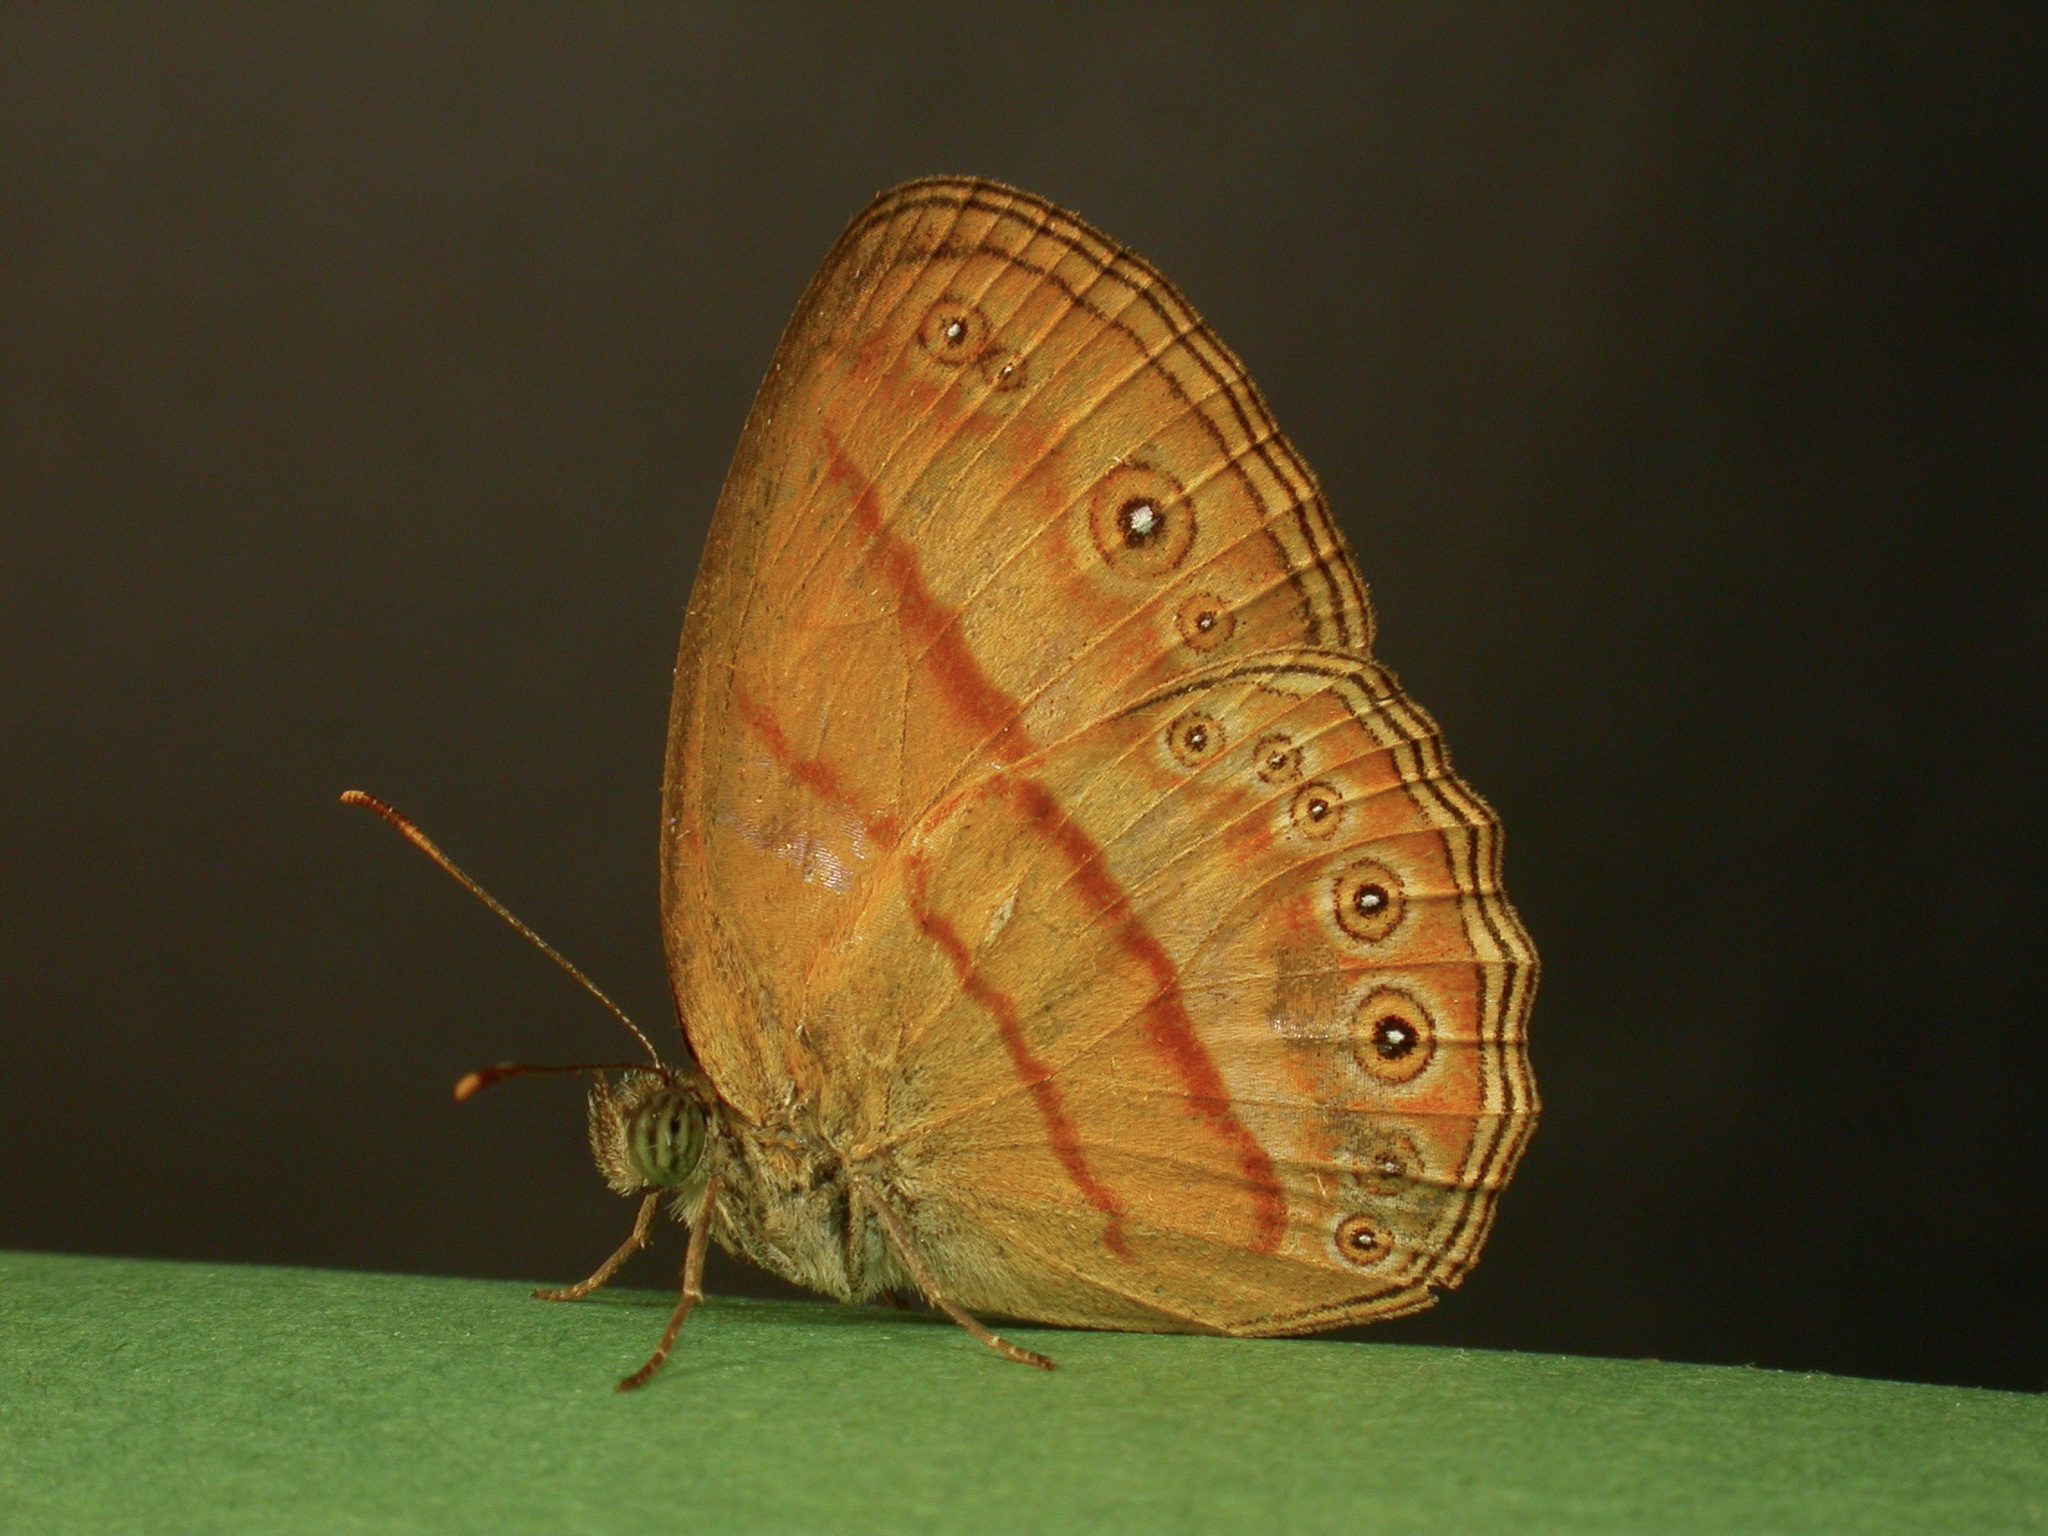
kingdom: Animalia
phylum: Arthropoda
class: Insecta
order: Lepidoptera
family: Nymphalidae
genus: Mycalesis
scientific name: Mycalesis anapita
